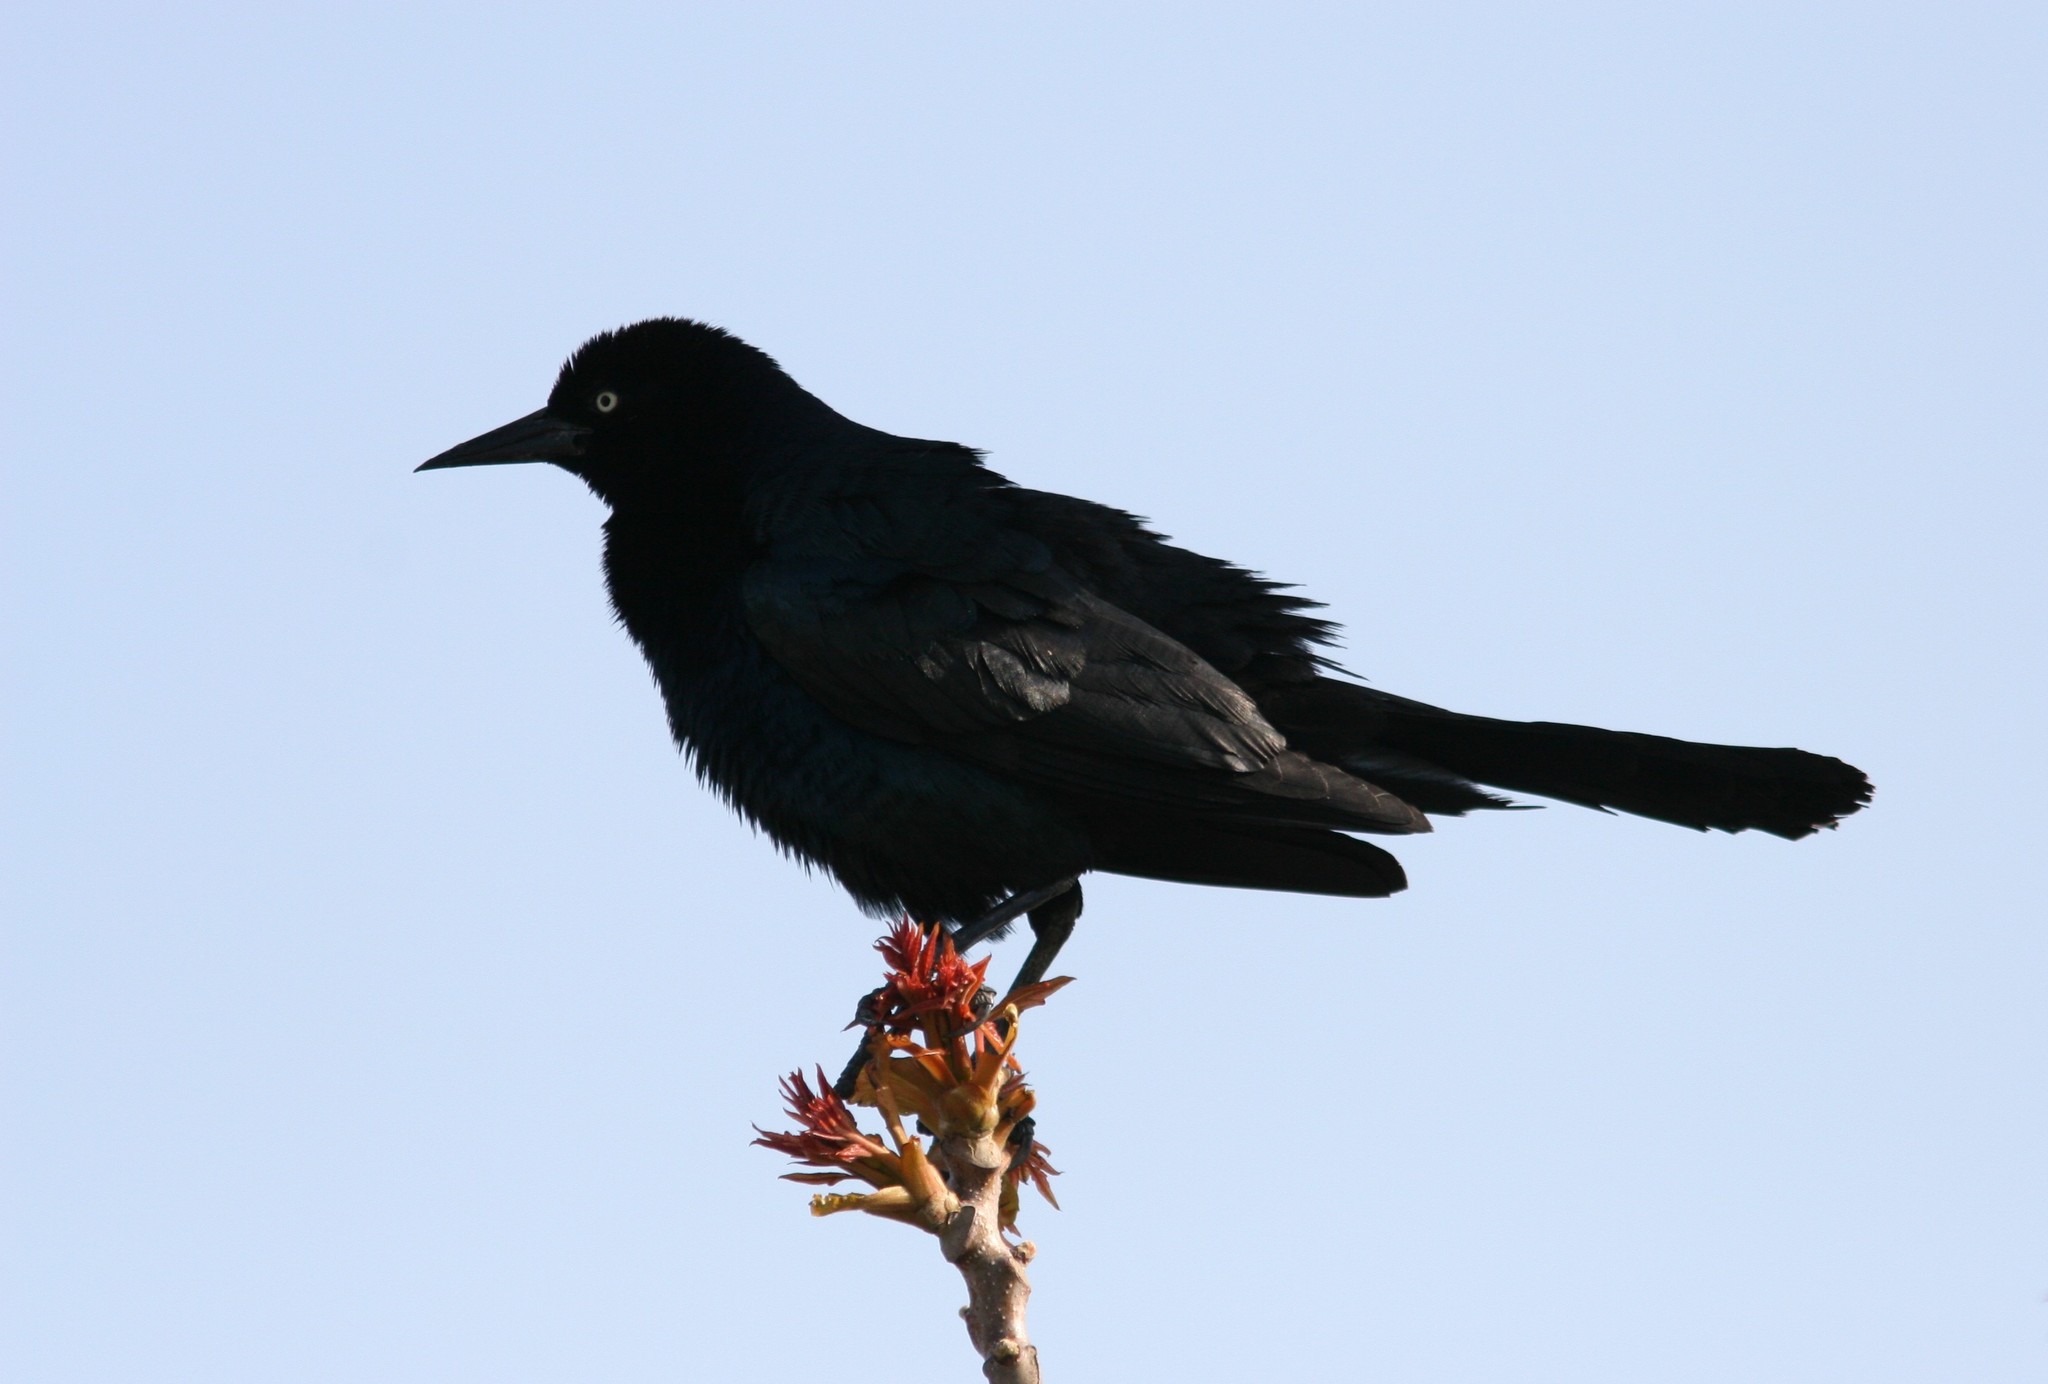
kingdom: Animalia
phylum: Chordata
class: Aves
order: Passeriformes
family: Icteridae
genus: Quiscalus
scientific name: Quiscalus major
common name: Boat-tailed grackle
